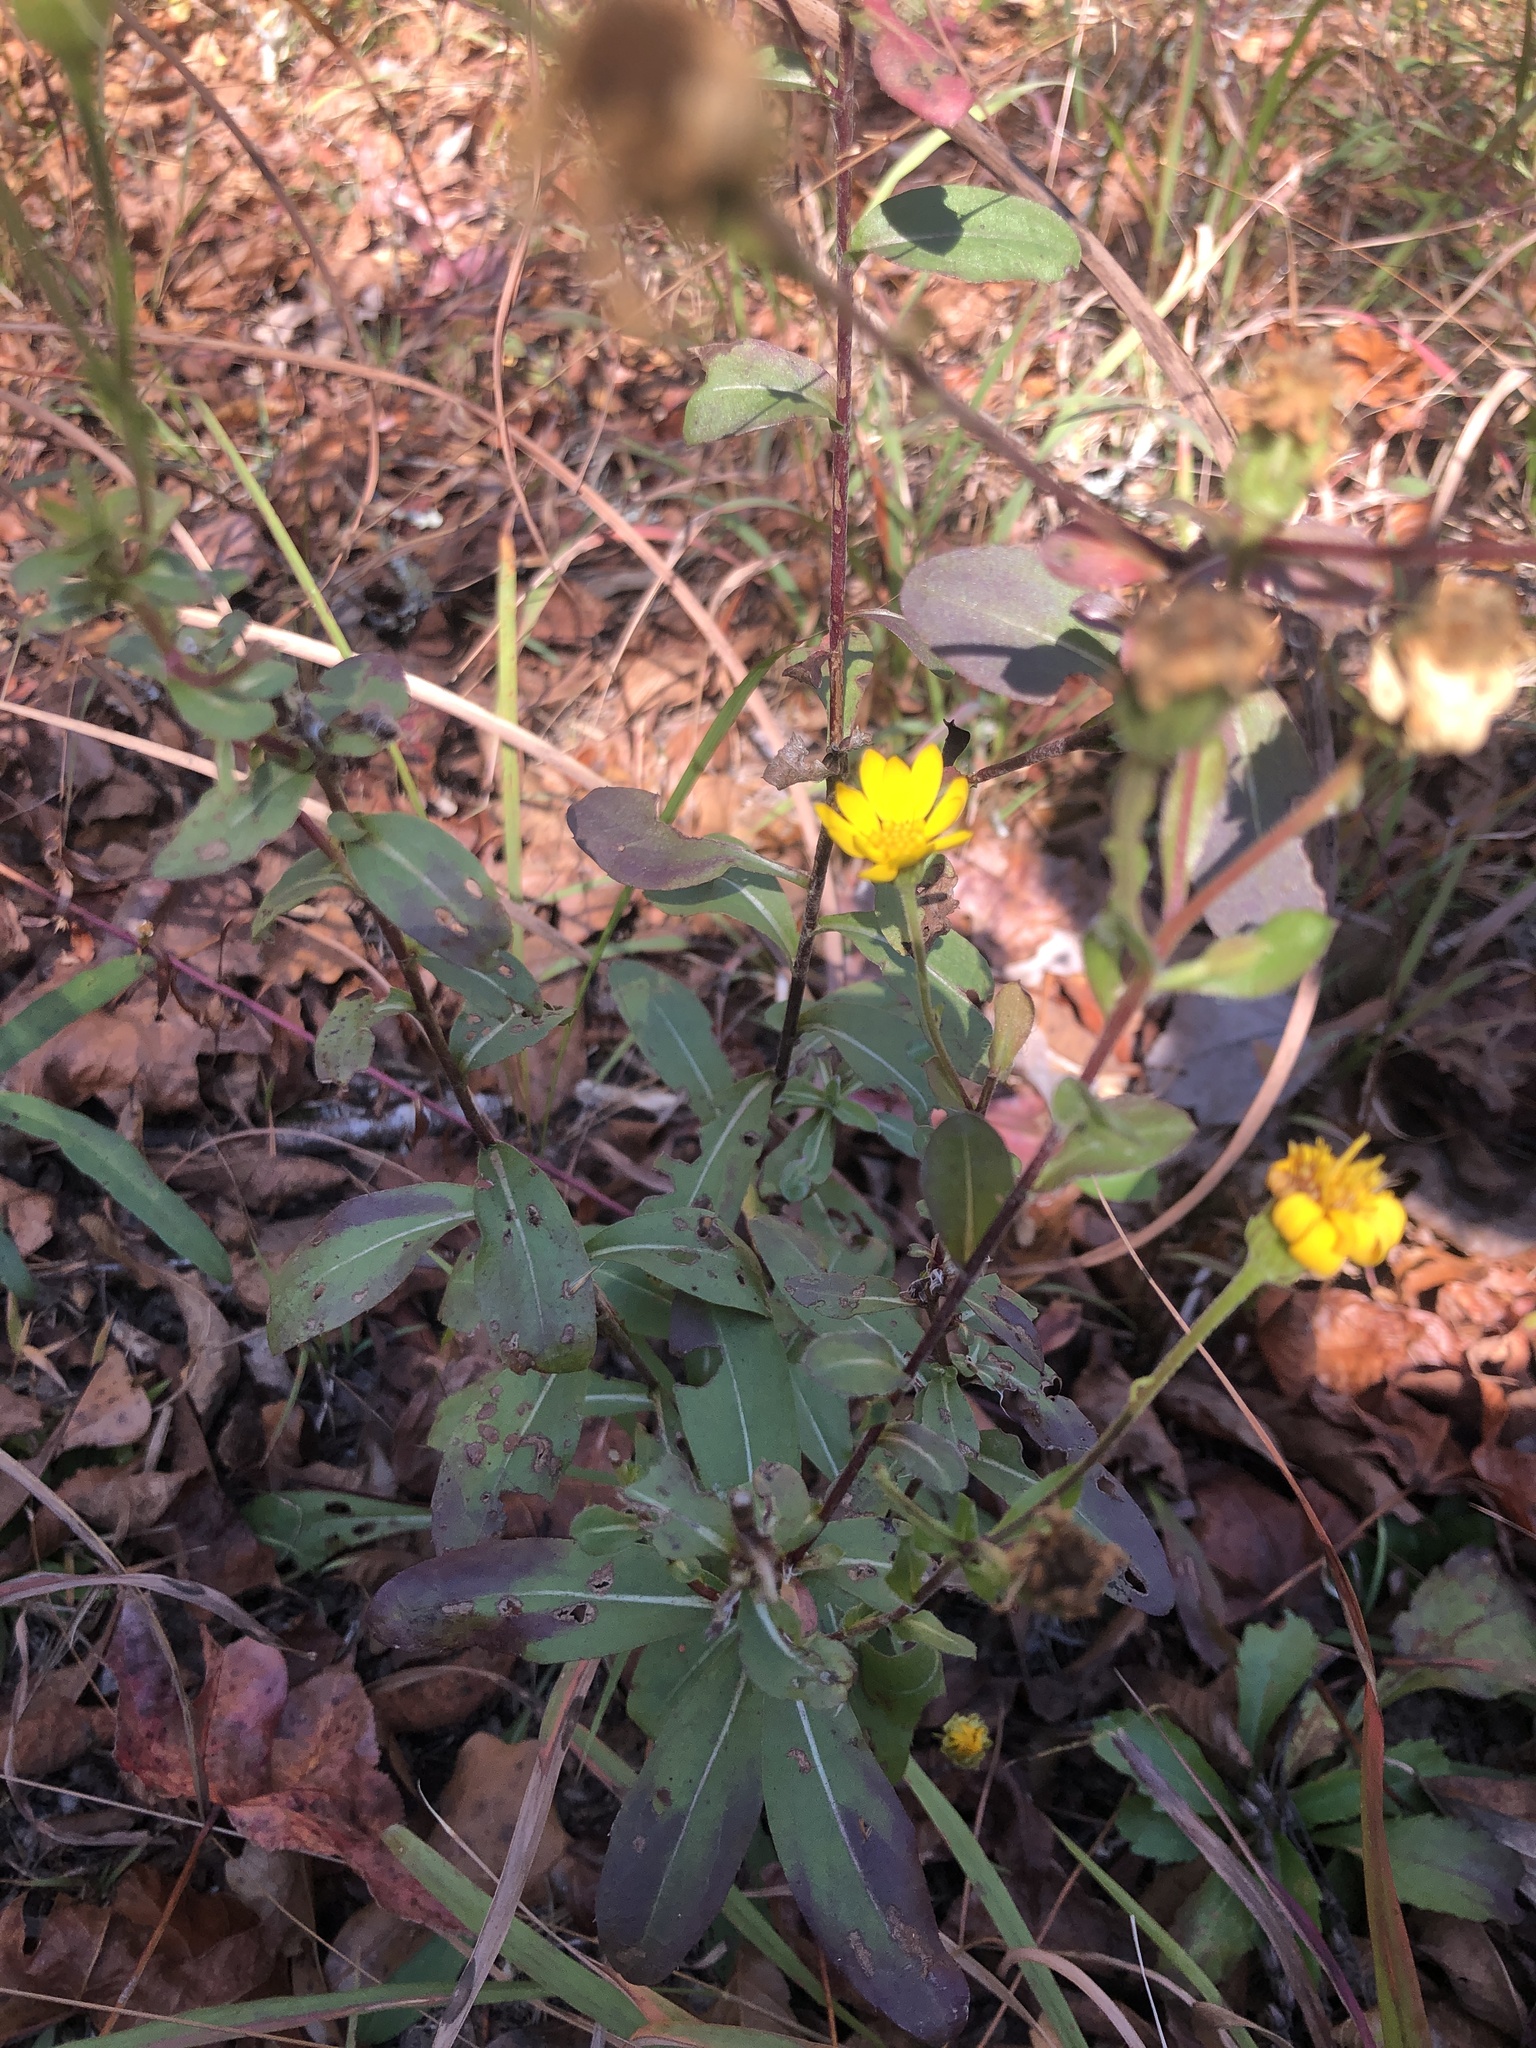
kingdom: Plantae
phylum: Tracheophyta
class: Magnoliopsida
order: Asterales
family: Asteraceae
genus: Chrysopsis
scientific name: Chrysopsis mariana
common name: Maryland golden-aster
